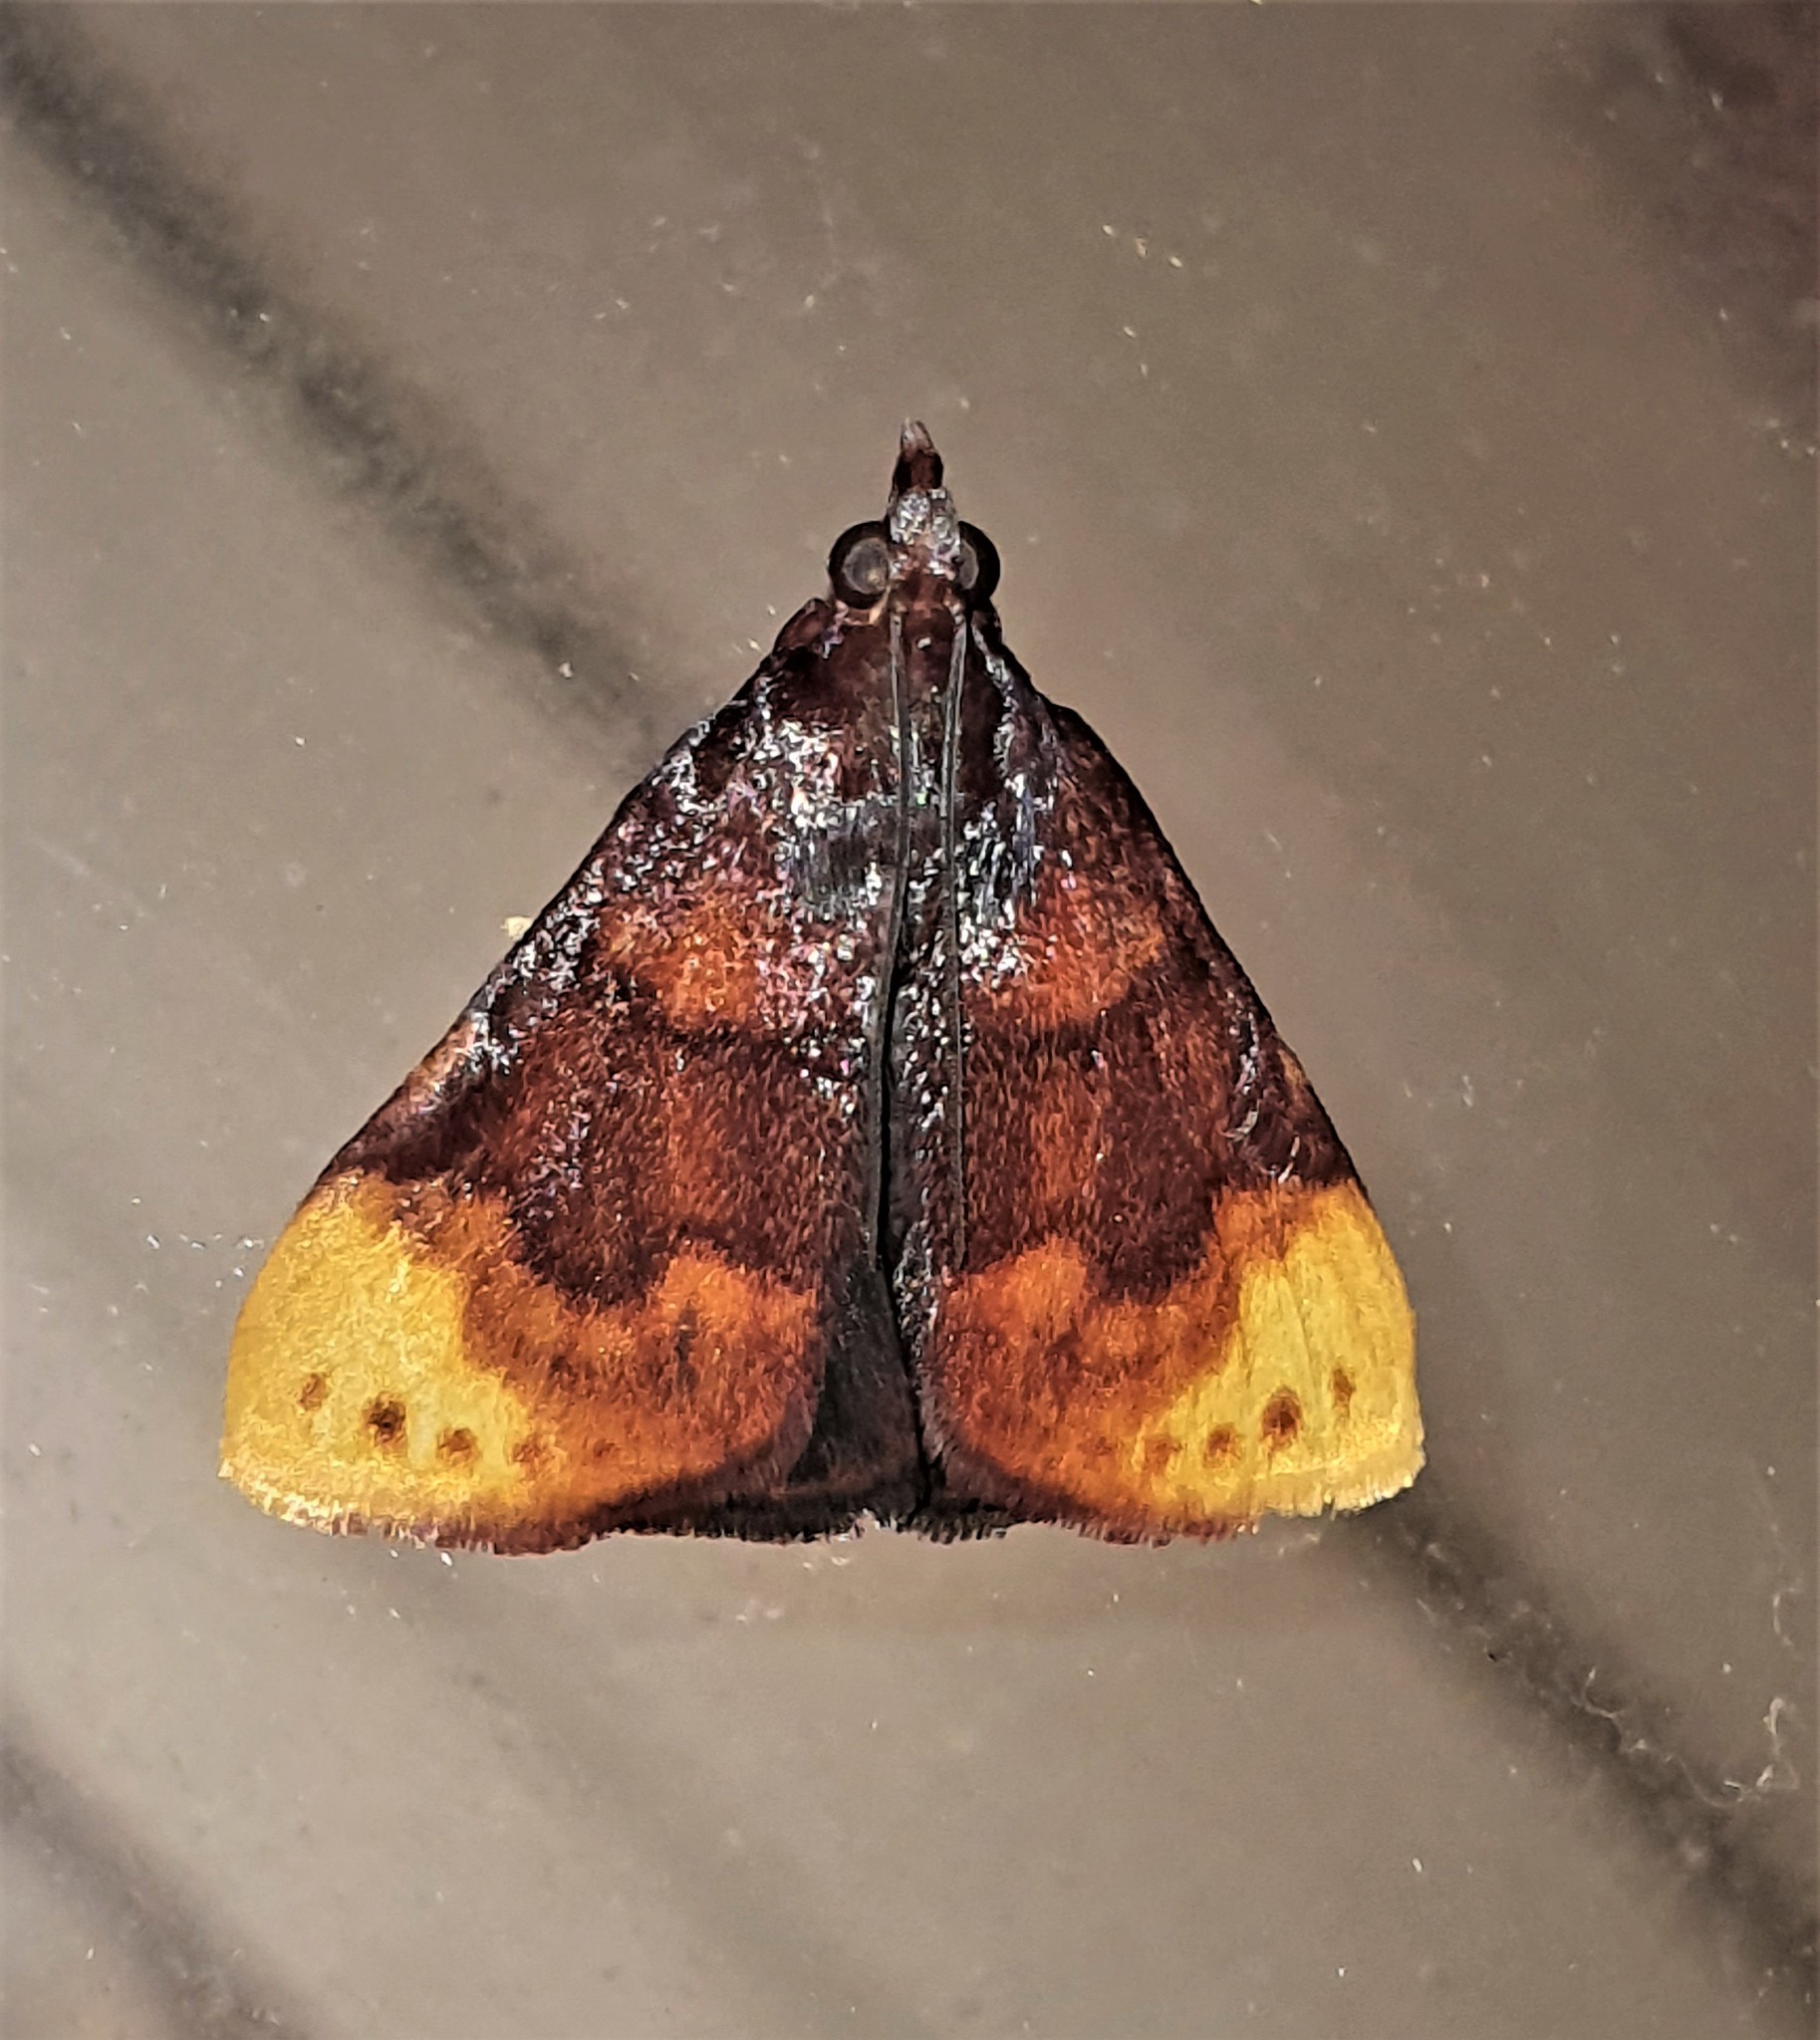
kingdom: Animalia
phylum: Arthropoda
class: Insecta
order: Lepidoptera
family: Pyralidae
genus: Paramacna
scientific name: Paramacna nattereri
